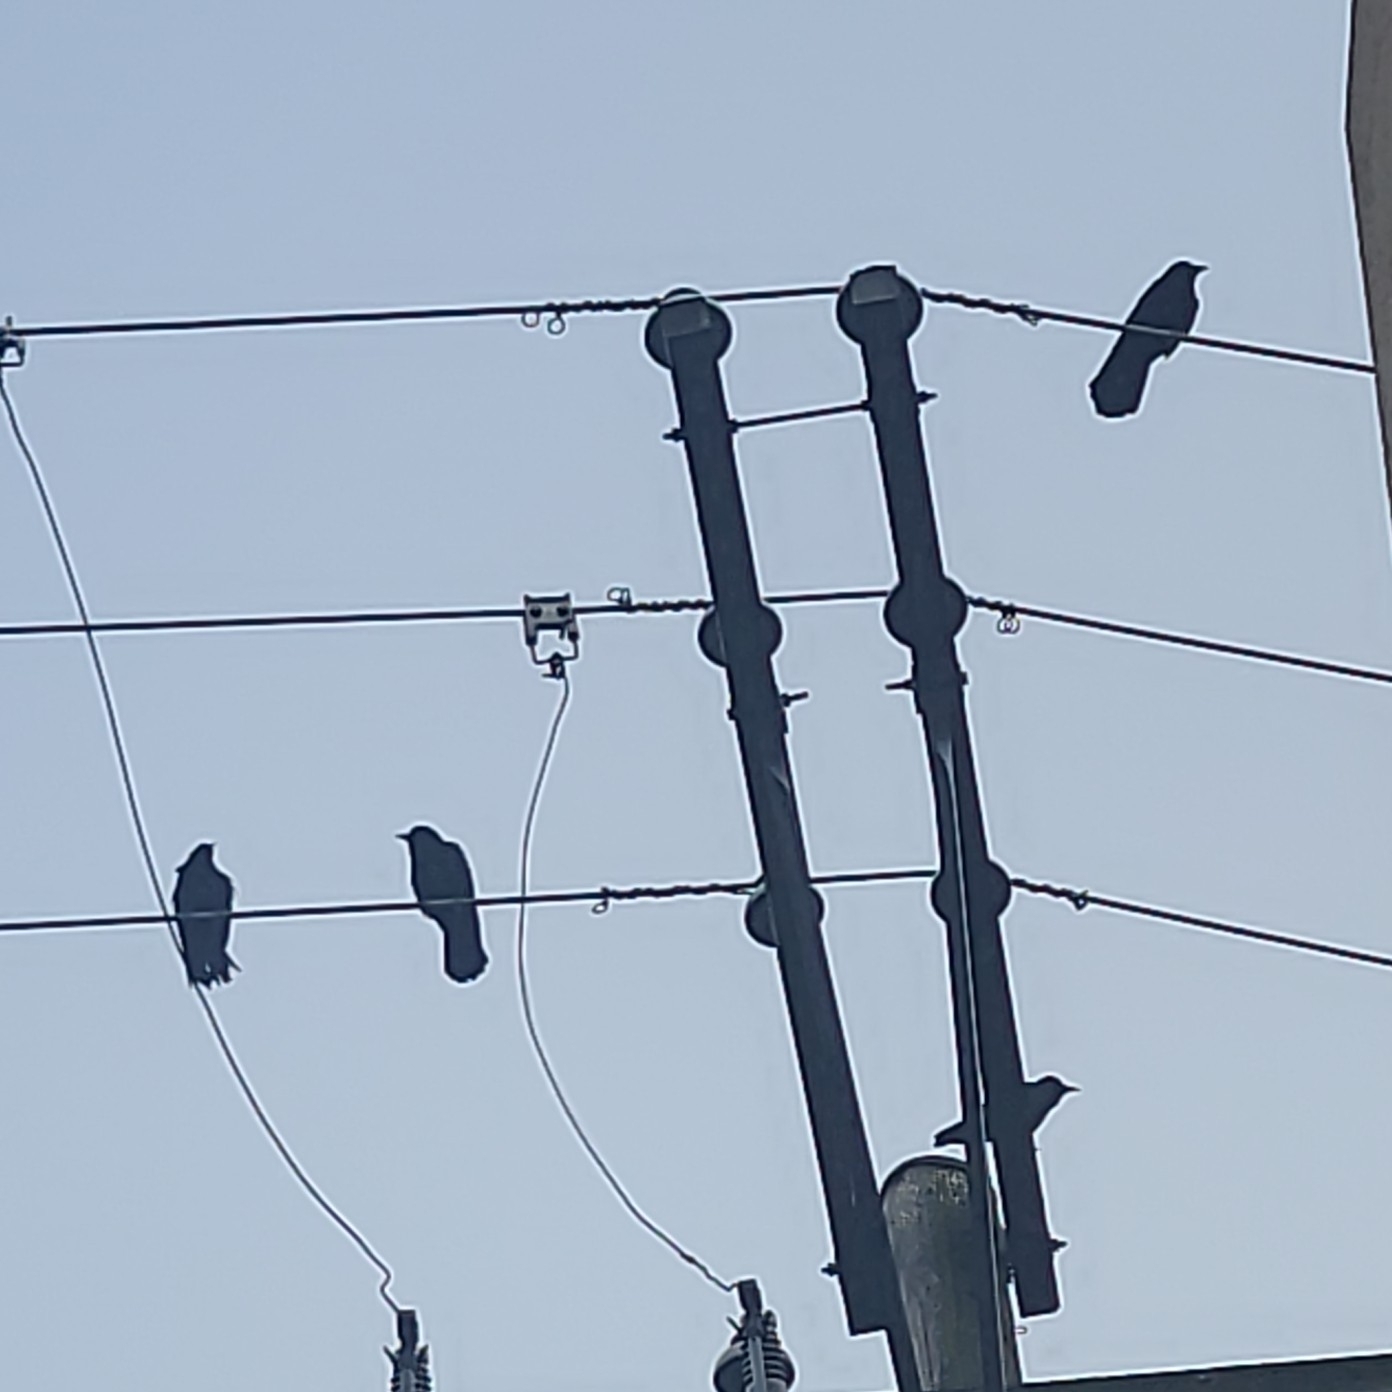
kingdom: Animalia
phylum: Chordata
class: Aves
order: Passeriformes
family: Corvidae
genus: Corvus
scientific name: Corvus brachyrhynchos
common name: American crow
